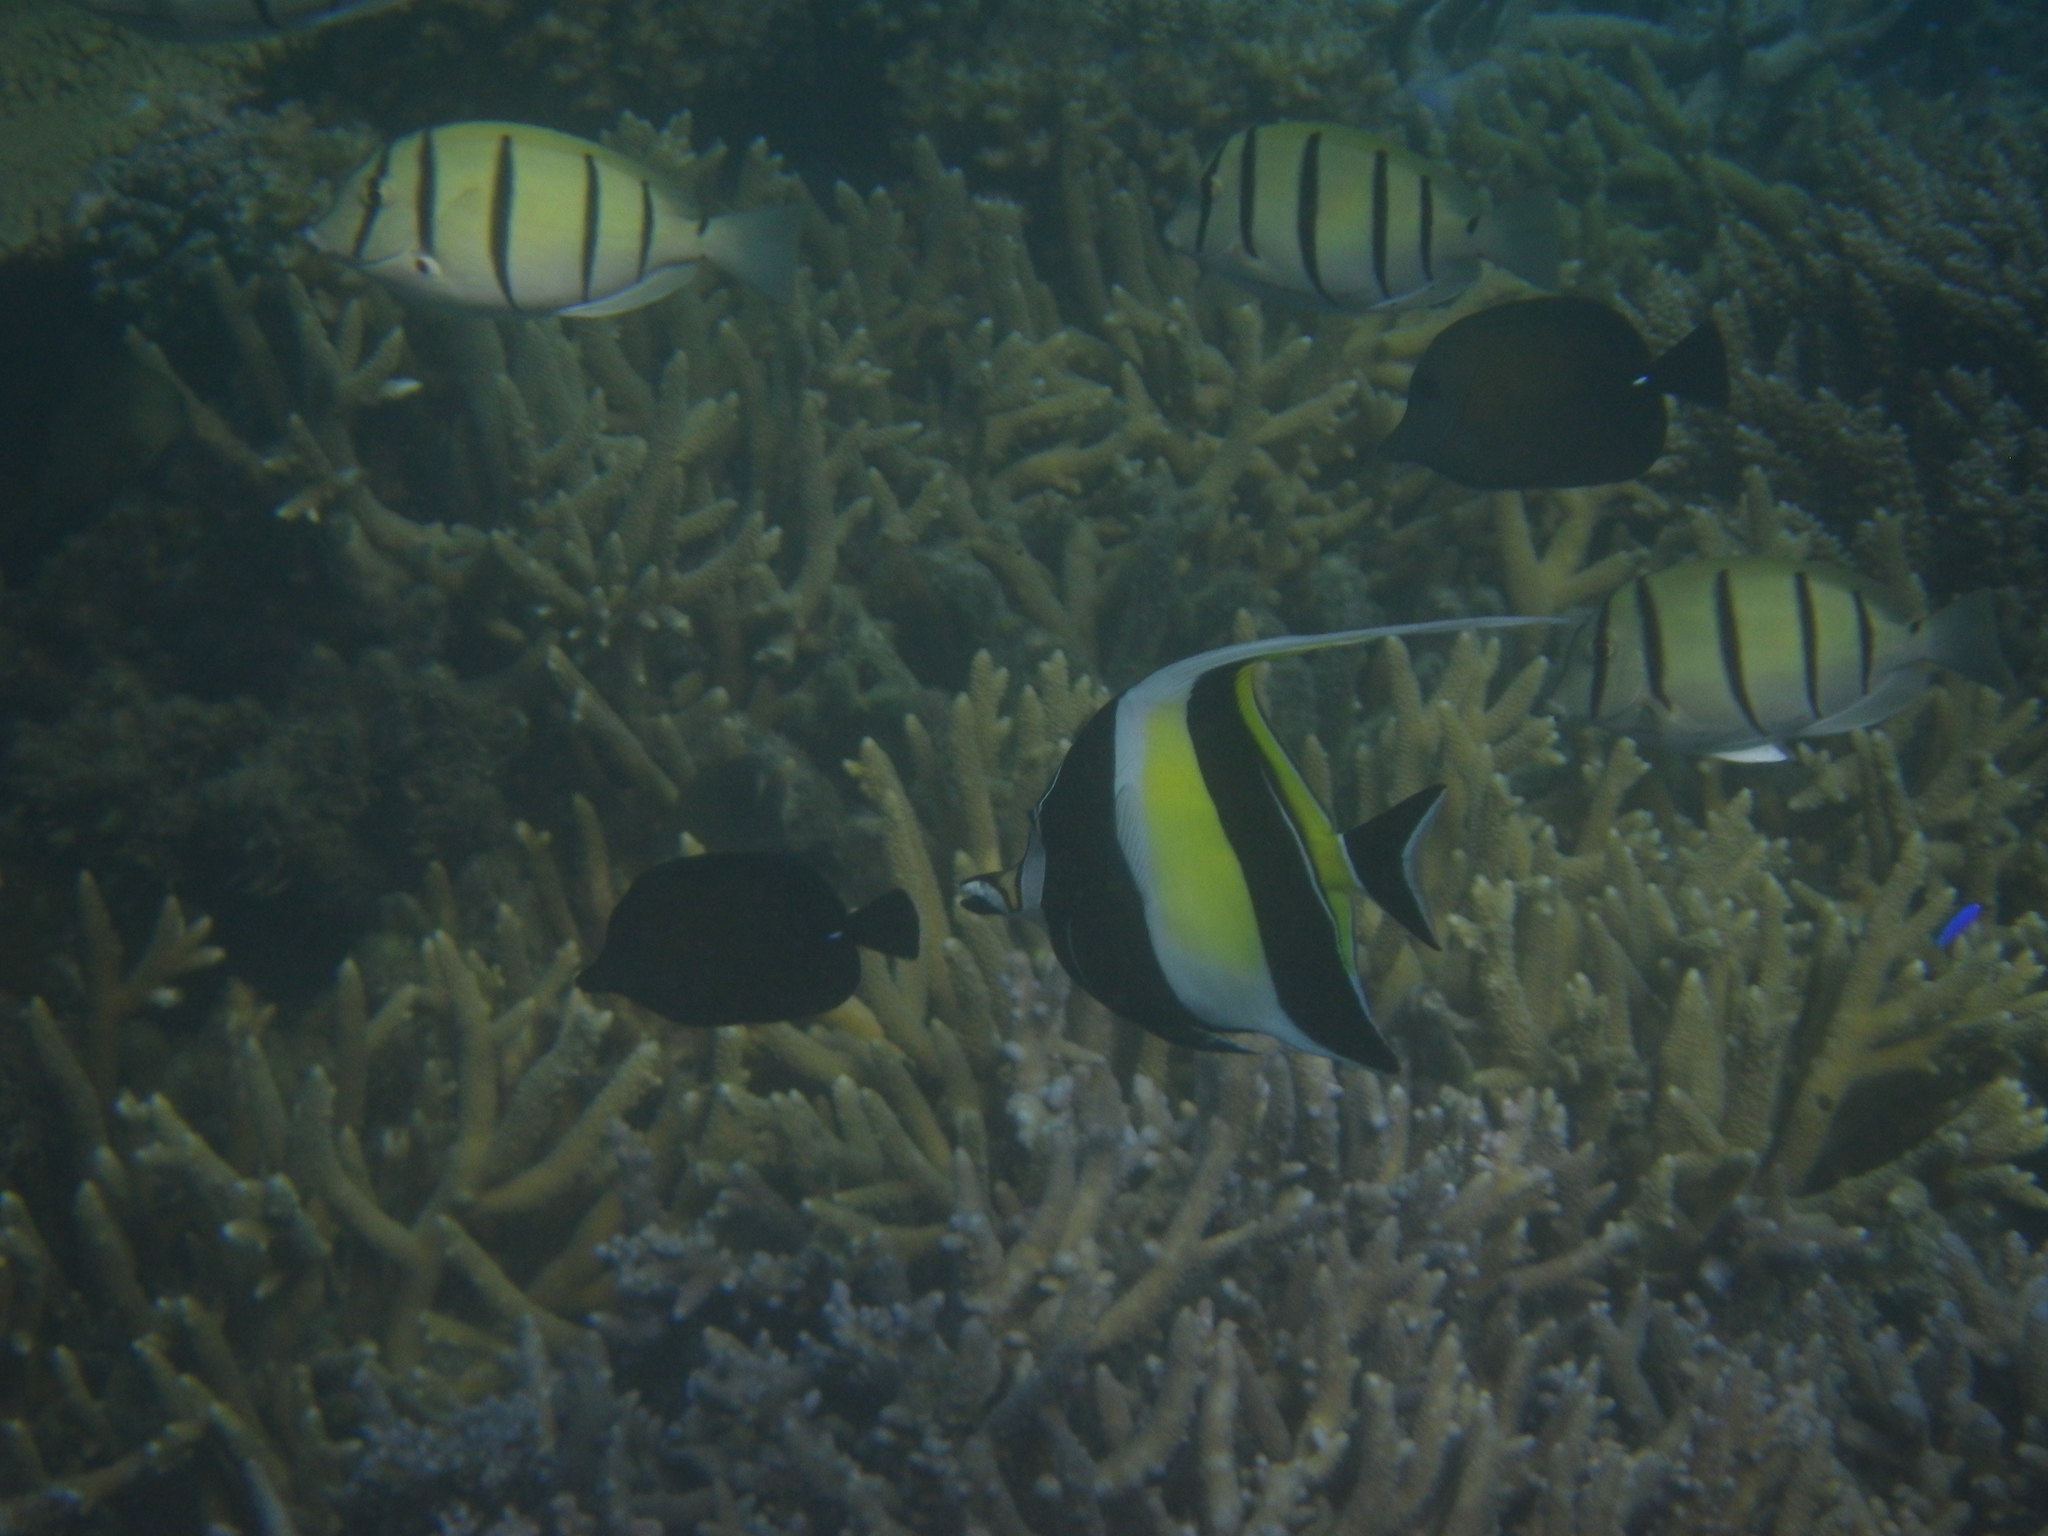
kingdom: Animalia
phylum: Chordata
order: Perciformes
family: Zanclidae
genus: Zanclus
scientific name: Zanclus cornutus
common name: Moorish idol
